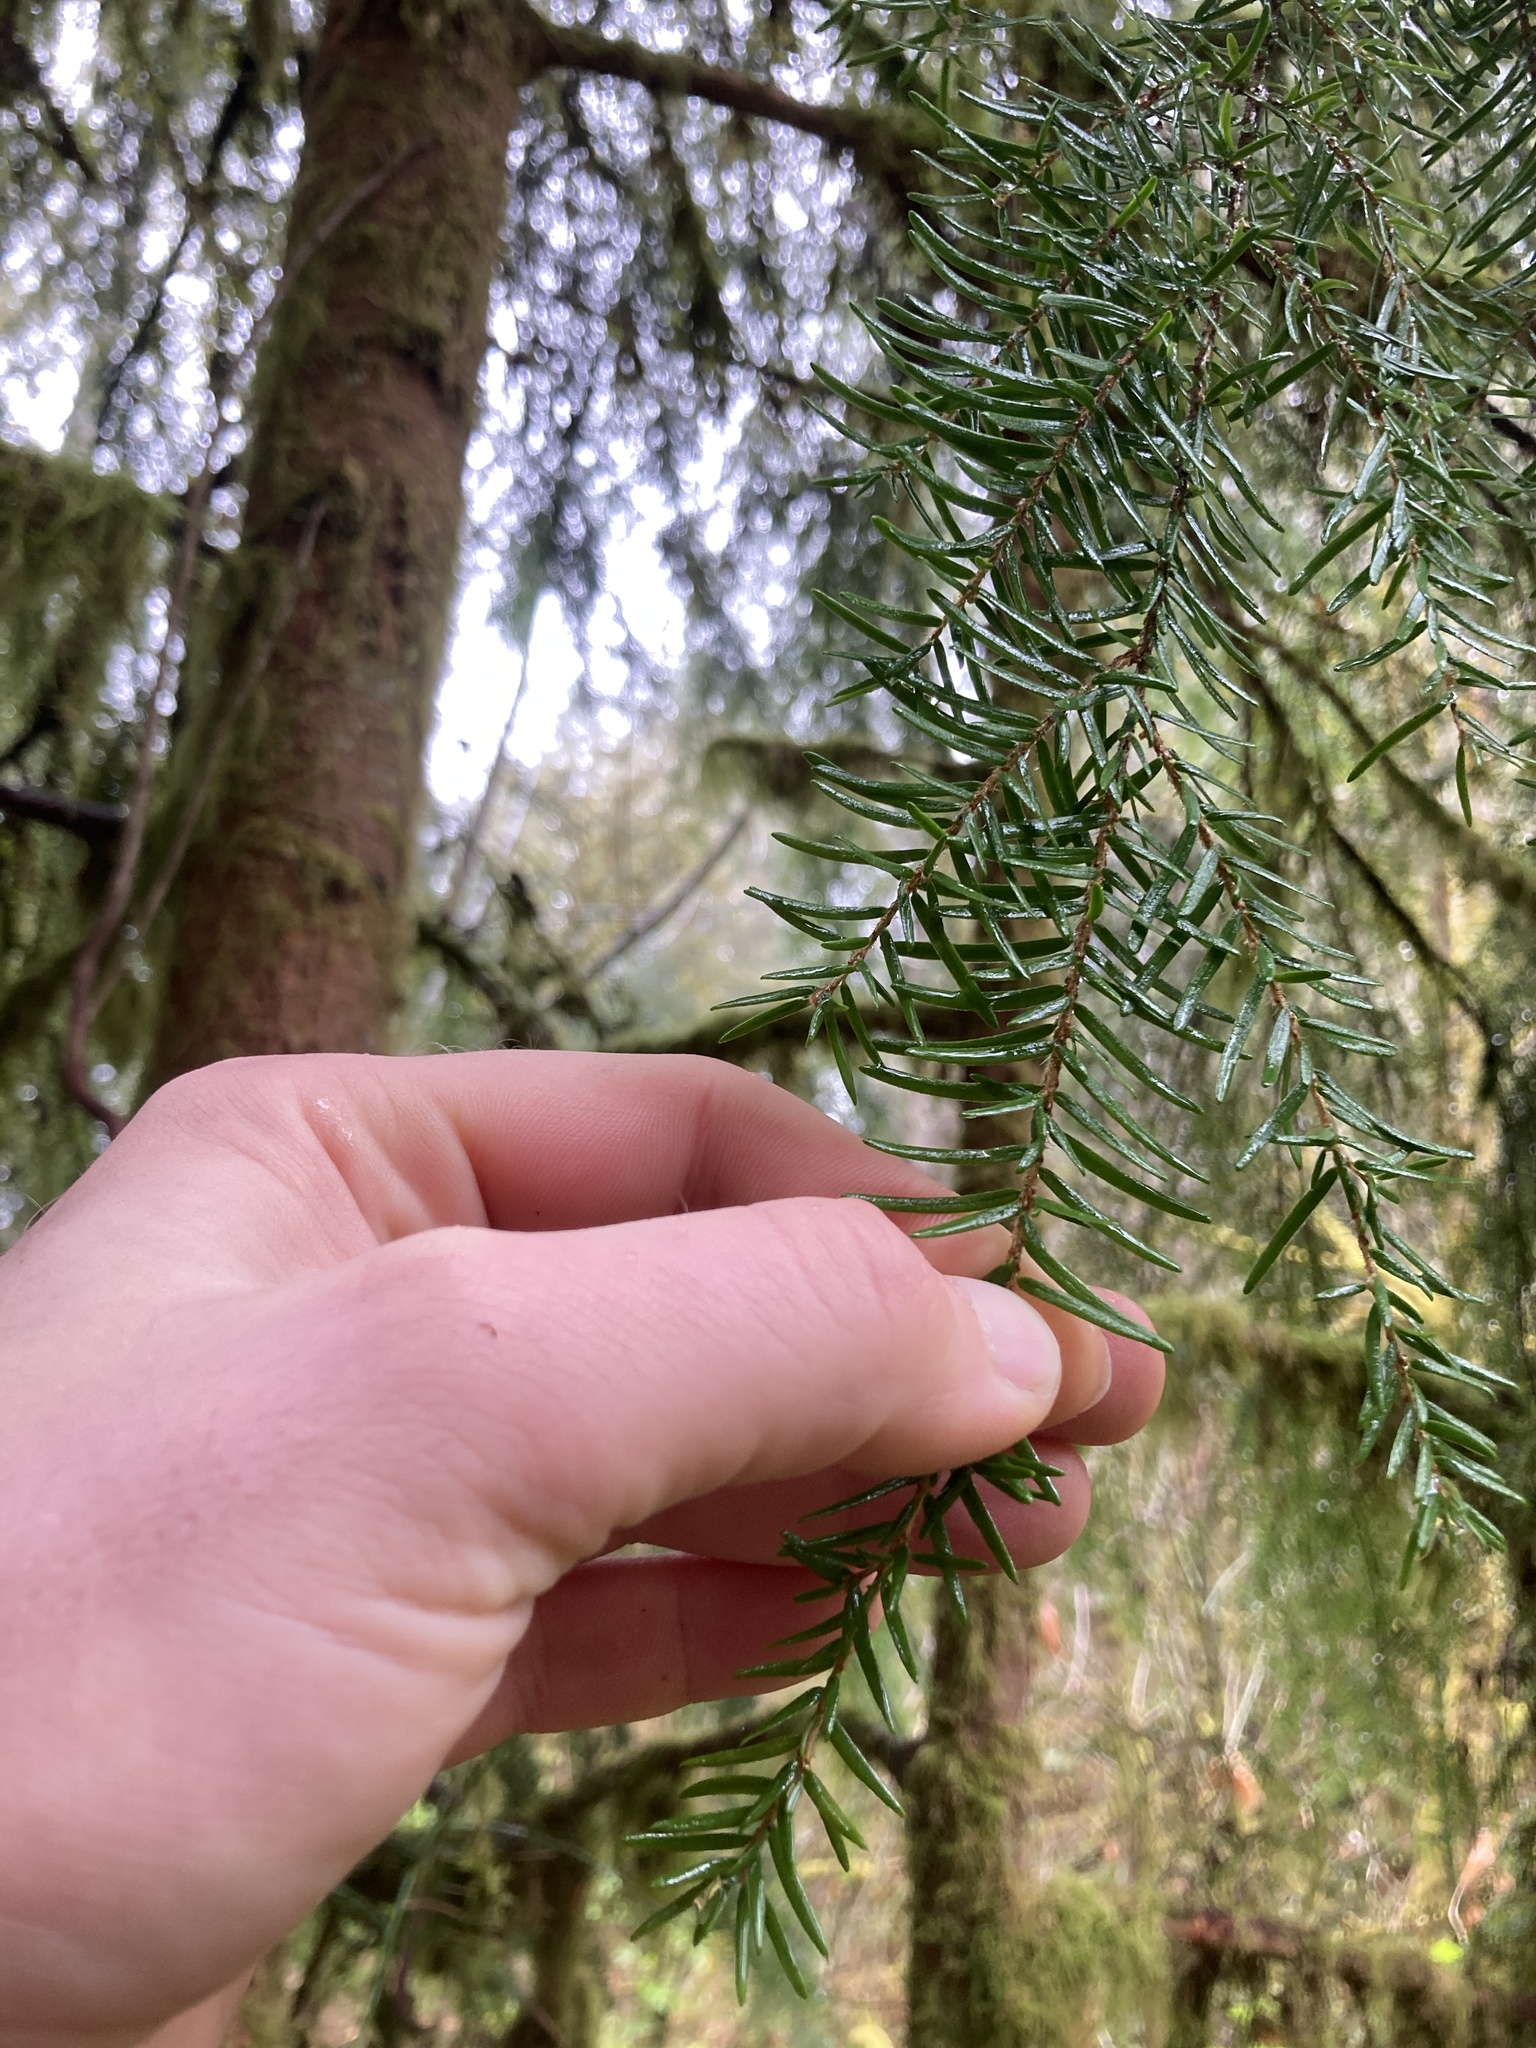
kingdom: Plantae
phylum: Tracheophyta
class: Pinopsida
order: Pinales
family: Pinaceae
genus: Tsuga
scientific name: Tsuga heterophylla
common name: Western hemlock
